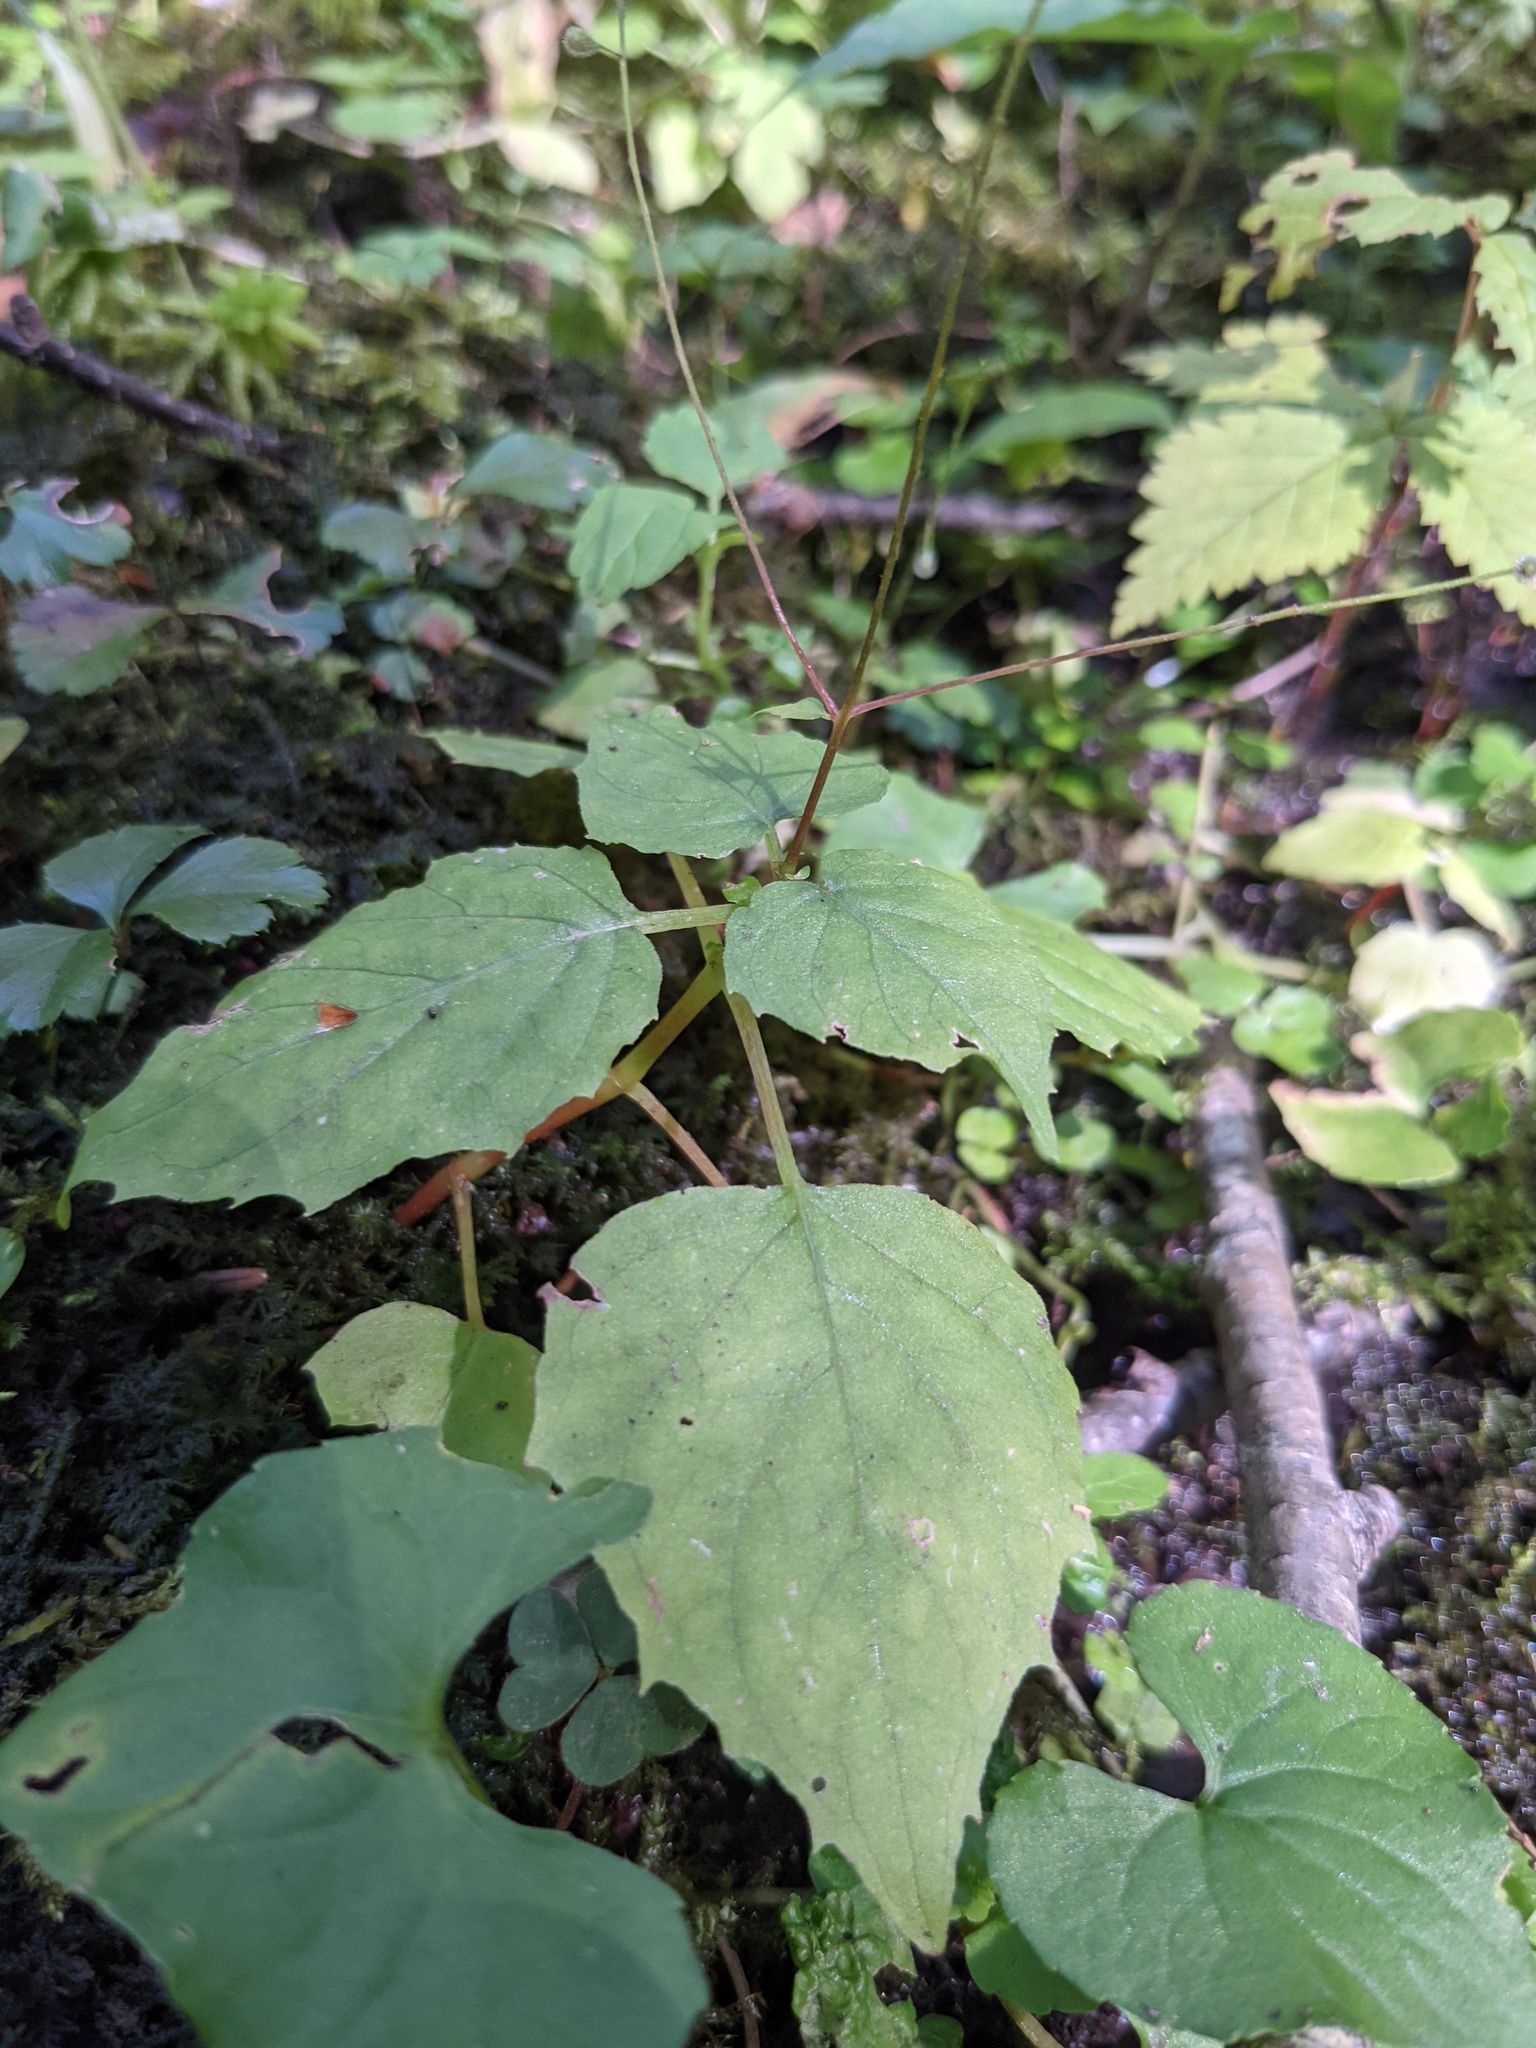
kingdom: Plantae
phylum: Tracheophyta
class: Magnoliopsida
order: Myrtales
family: Onagraceae
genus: Circaea
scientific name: Circaea canadensis
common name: Broad-leaved enchanter's nightshade
